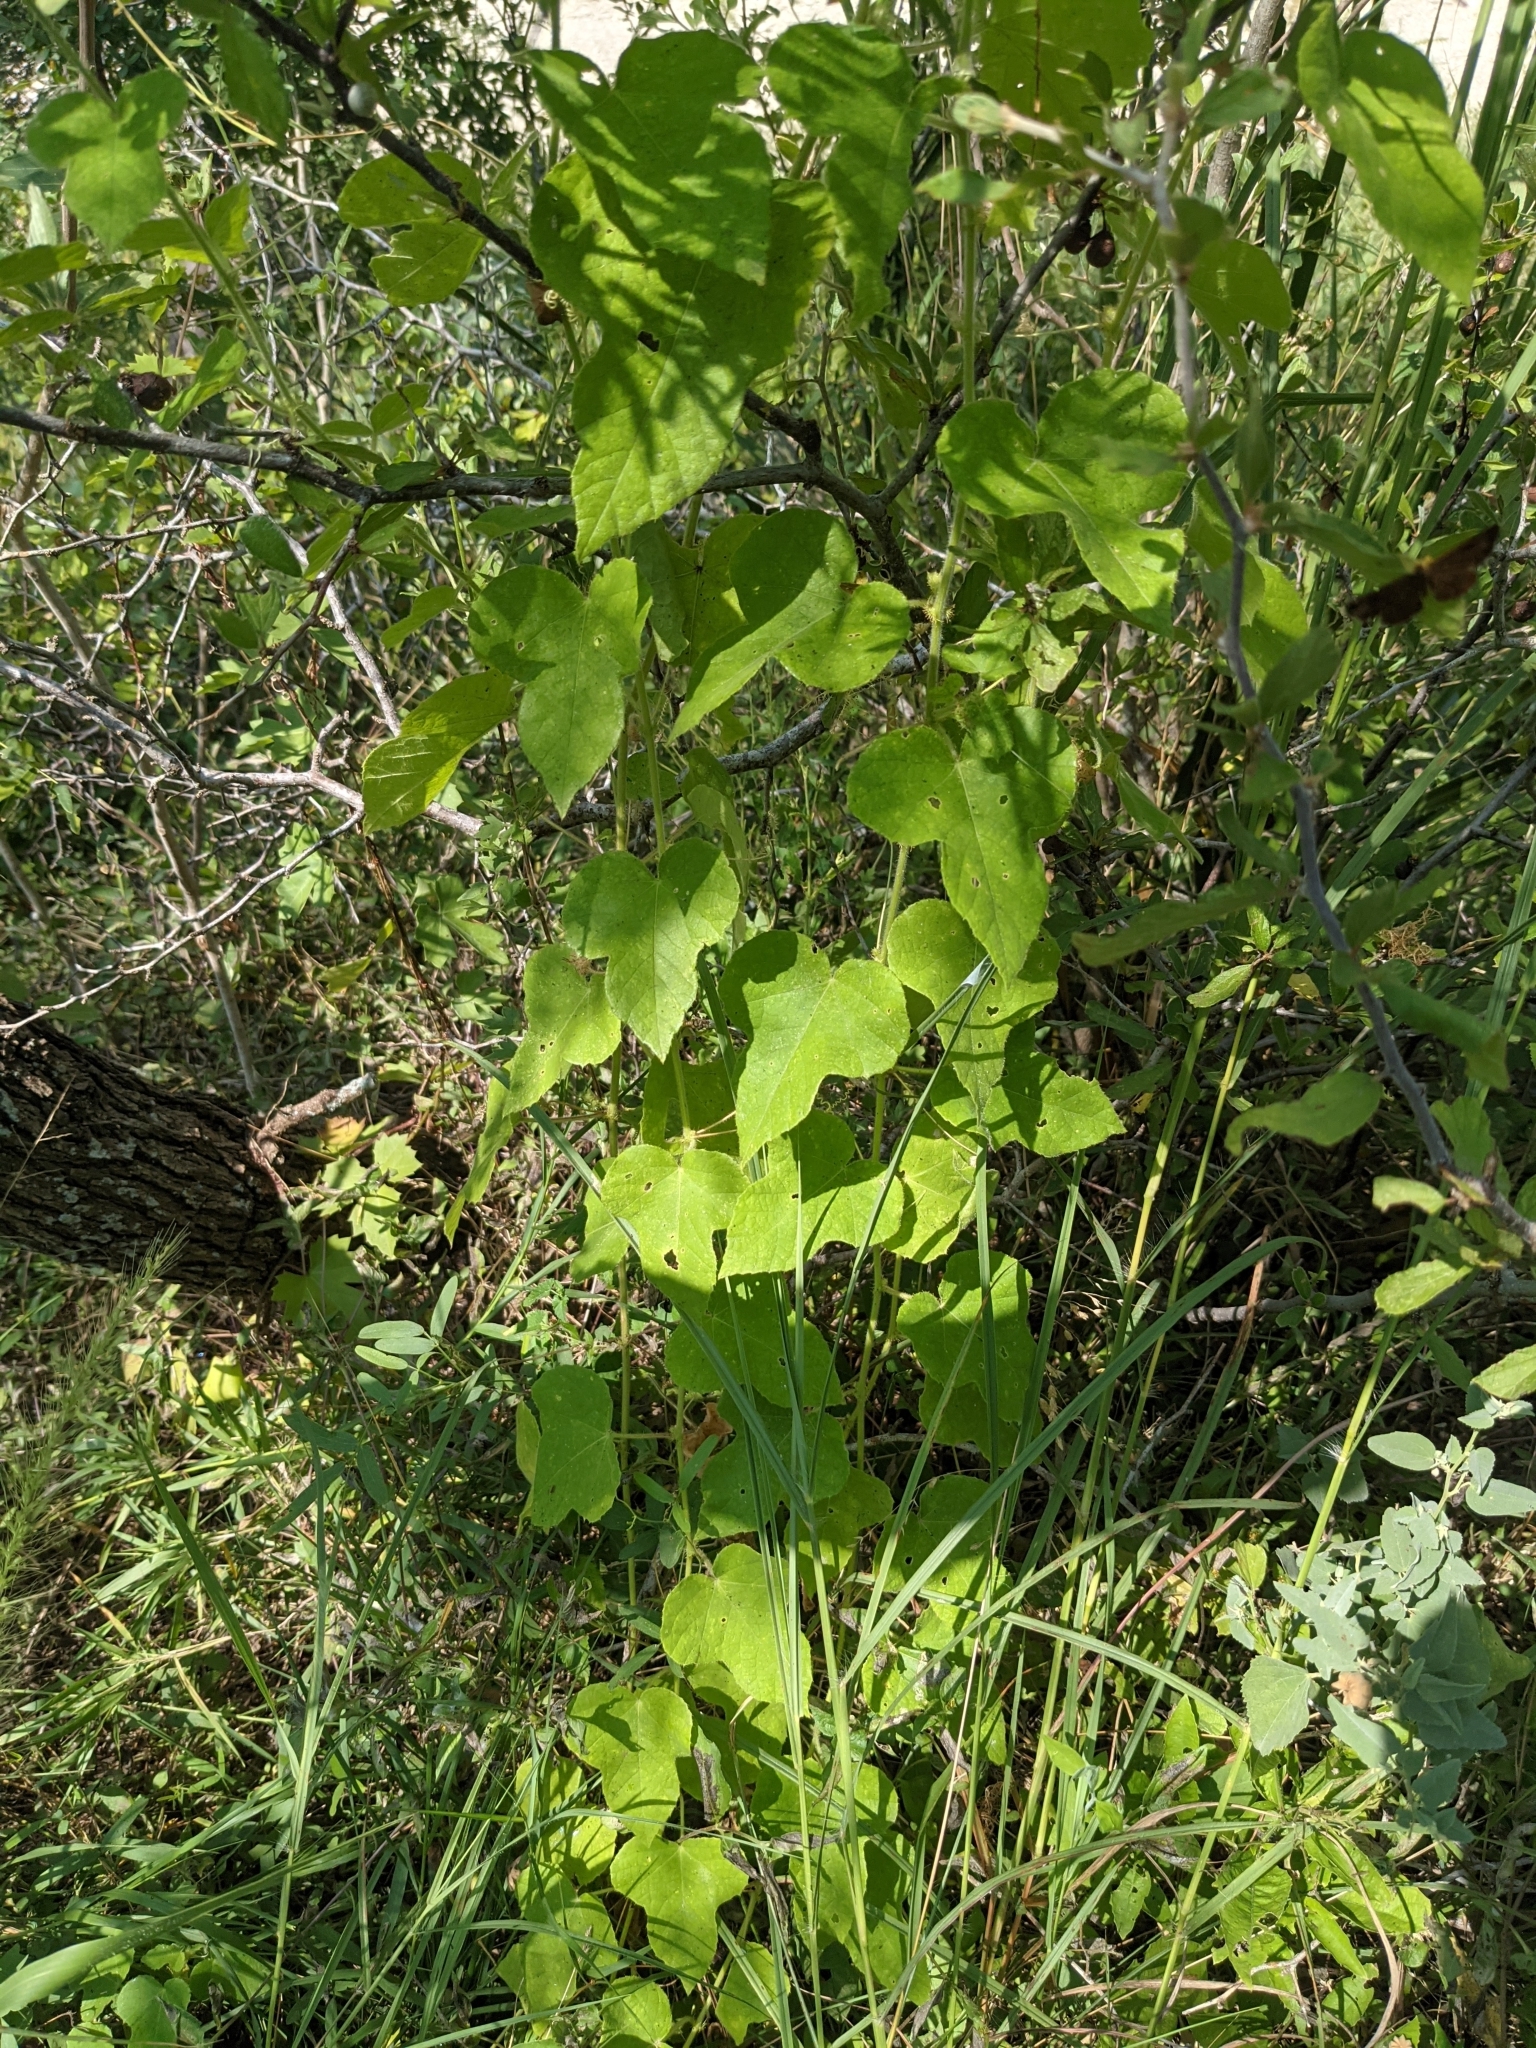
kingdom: Plantae
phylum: Tracheophyta
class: Magnoliopsida
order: Malpighiales
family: Passifloraceae
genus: Passiflora
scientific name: Passiflora foetida
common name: Fetid passionflower
